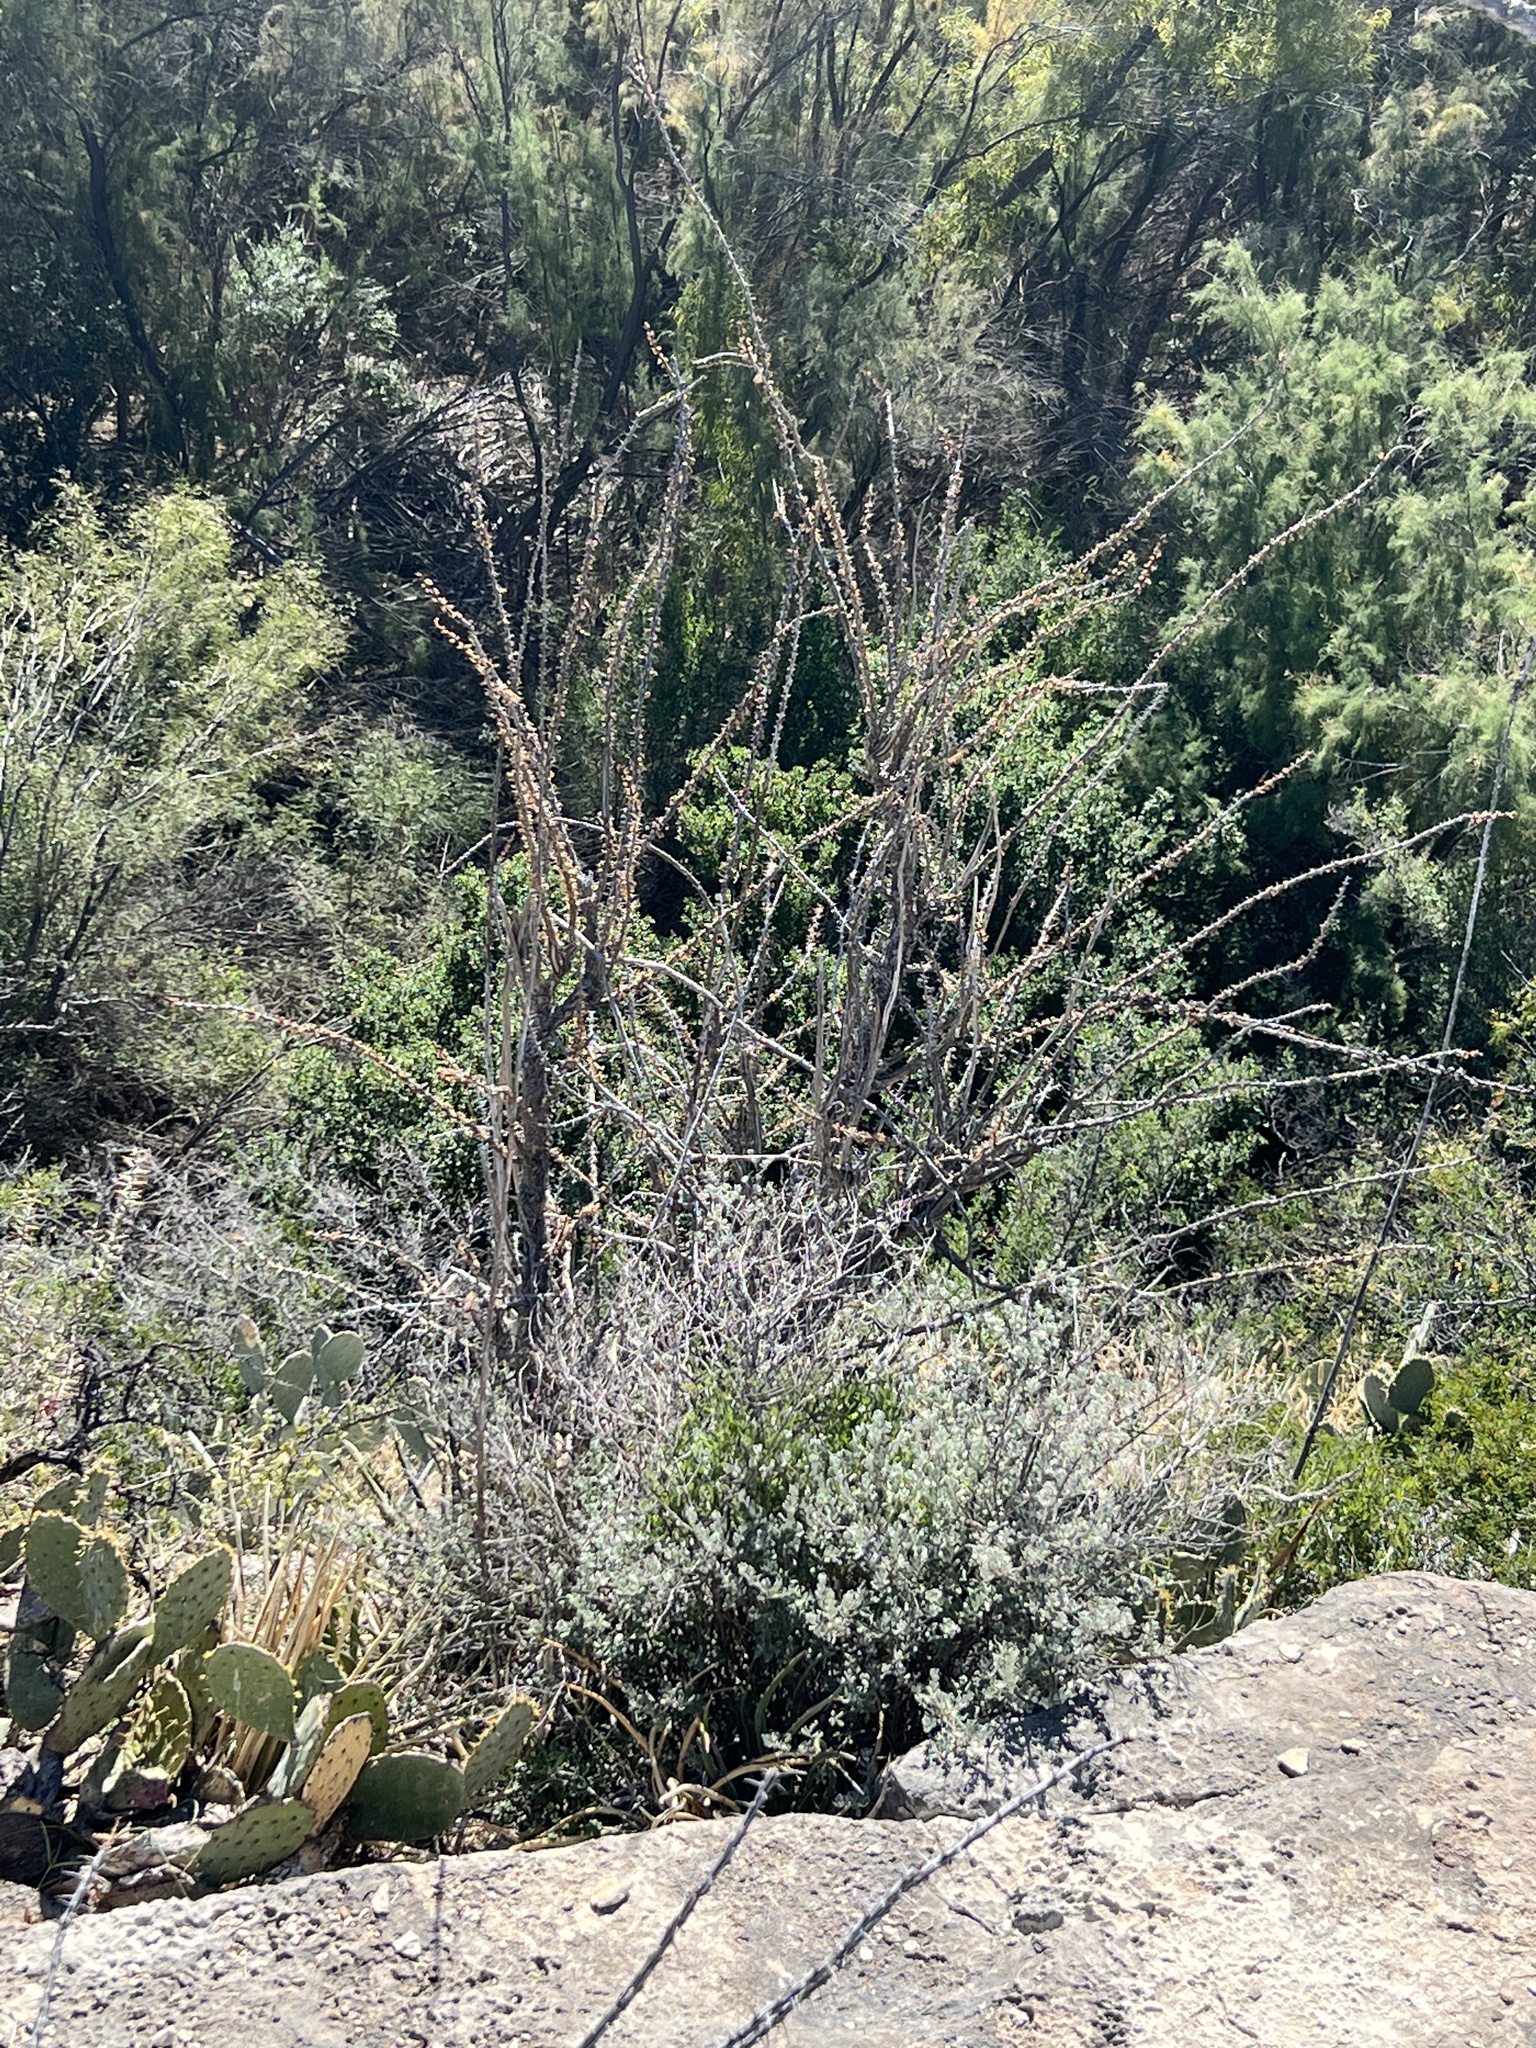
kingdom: Plantae
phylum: Tracheophyta
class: Magnoliopsida
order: Ericales
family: Fouquieriaceae
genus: Fouquieria
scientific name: Fouquieria splendens
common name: Vine-cactus
